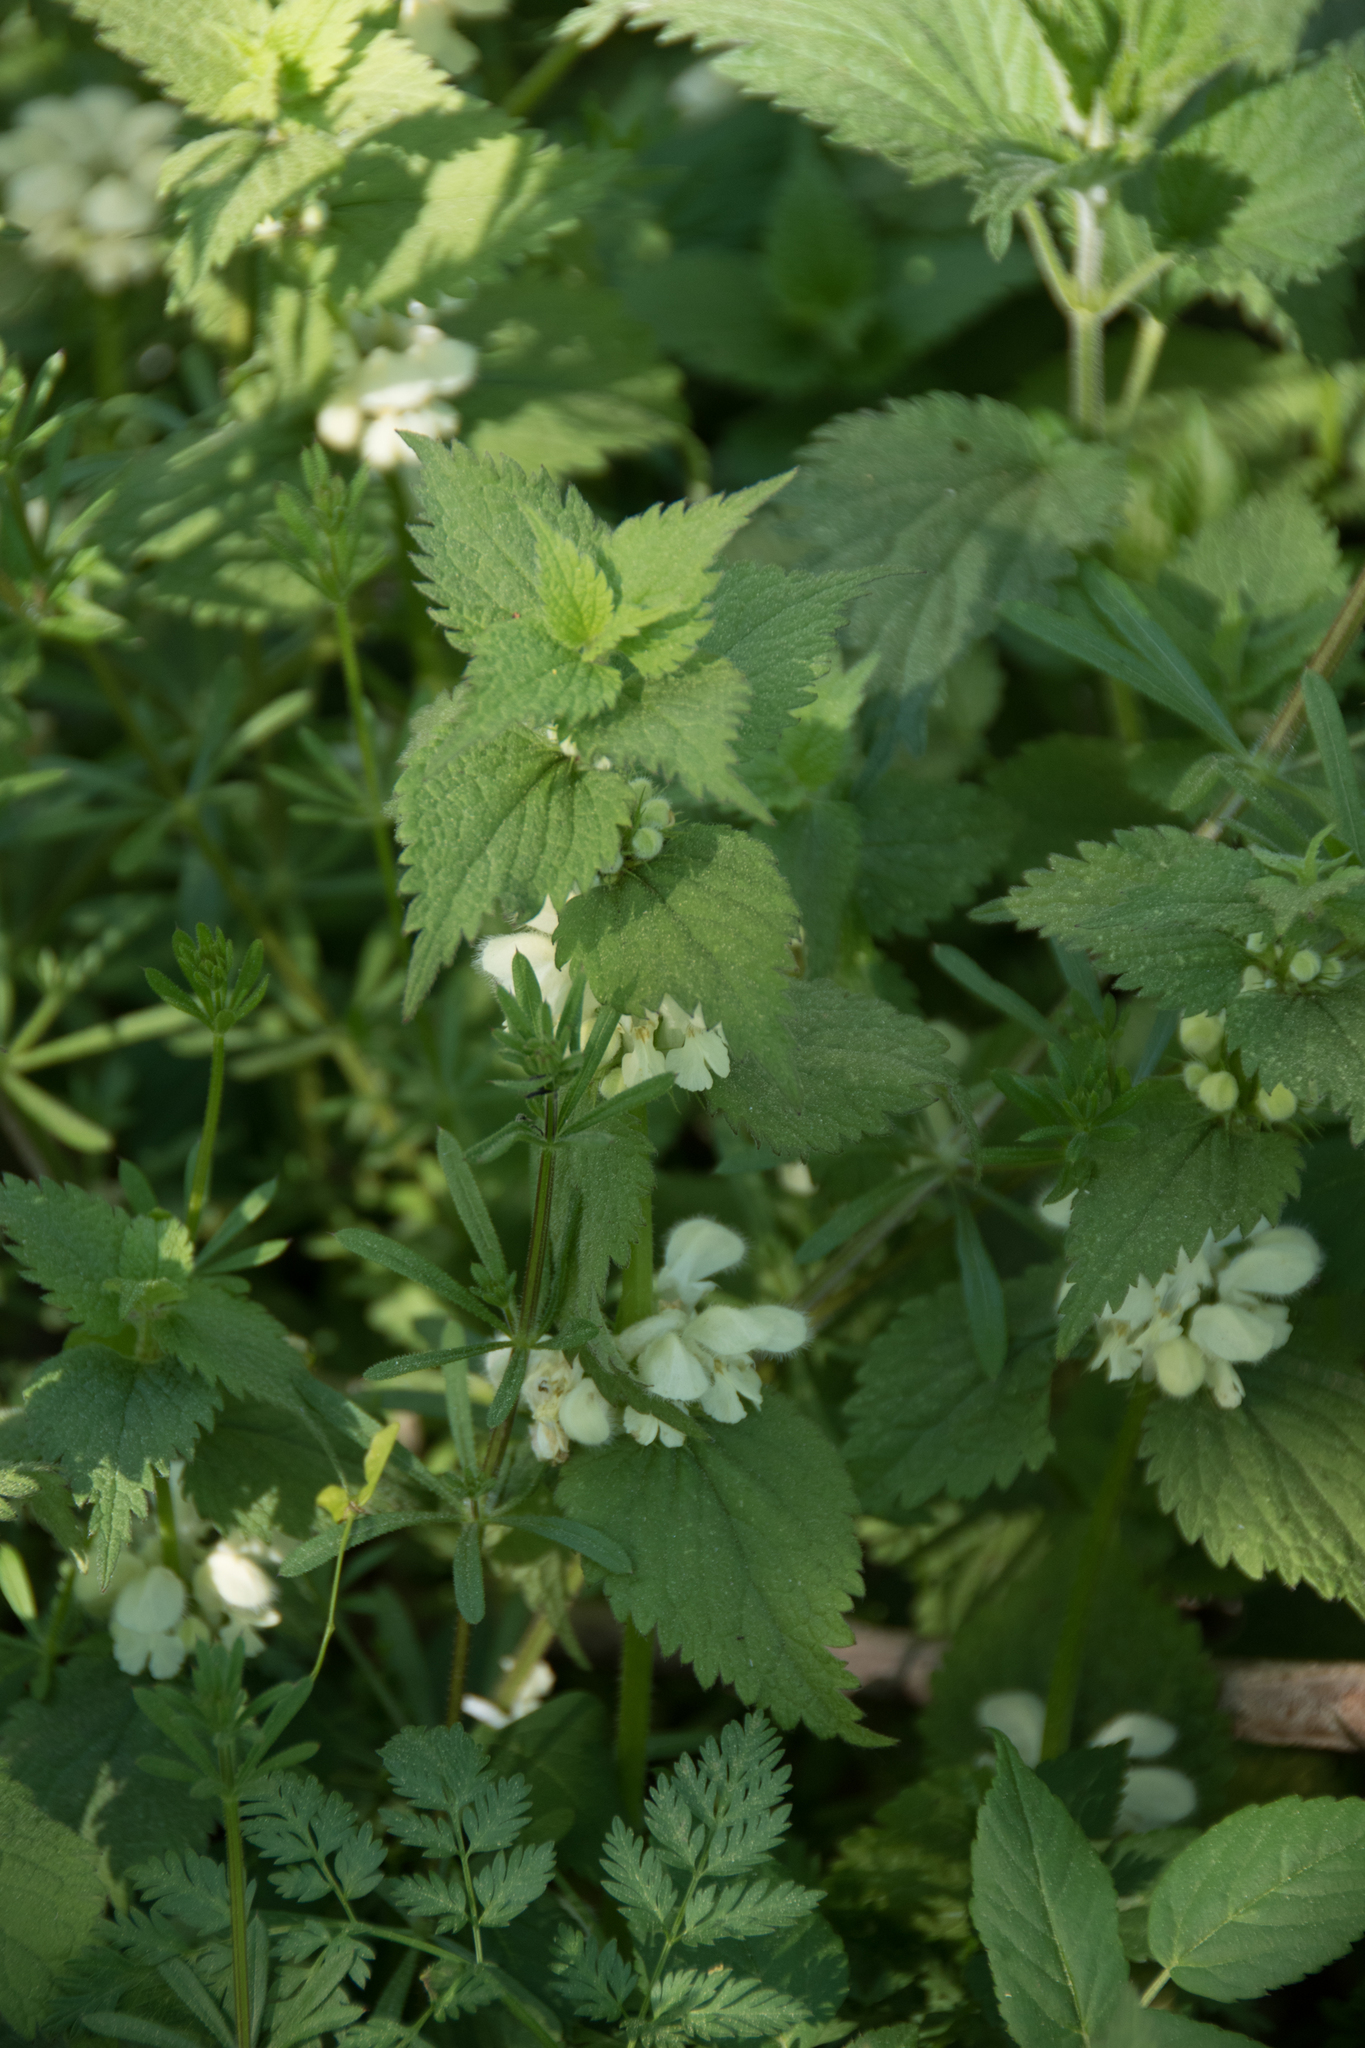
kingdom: Plantae
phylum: Tracheophyta
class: Magnoliopsida
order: Lamiales
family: Lamiaceae
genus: Lamium
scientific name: Lamium album
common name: White dead-nettle
